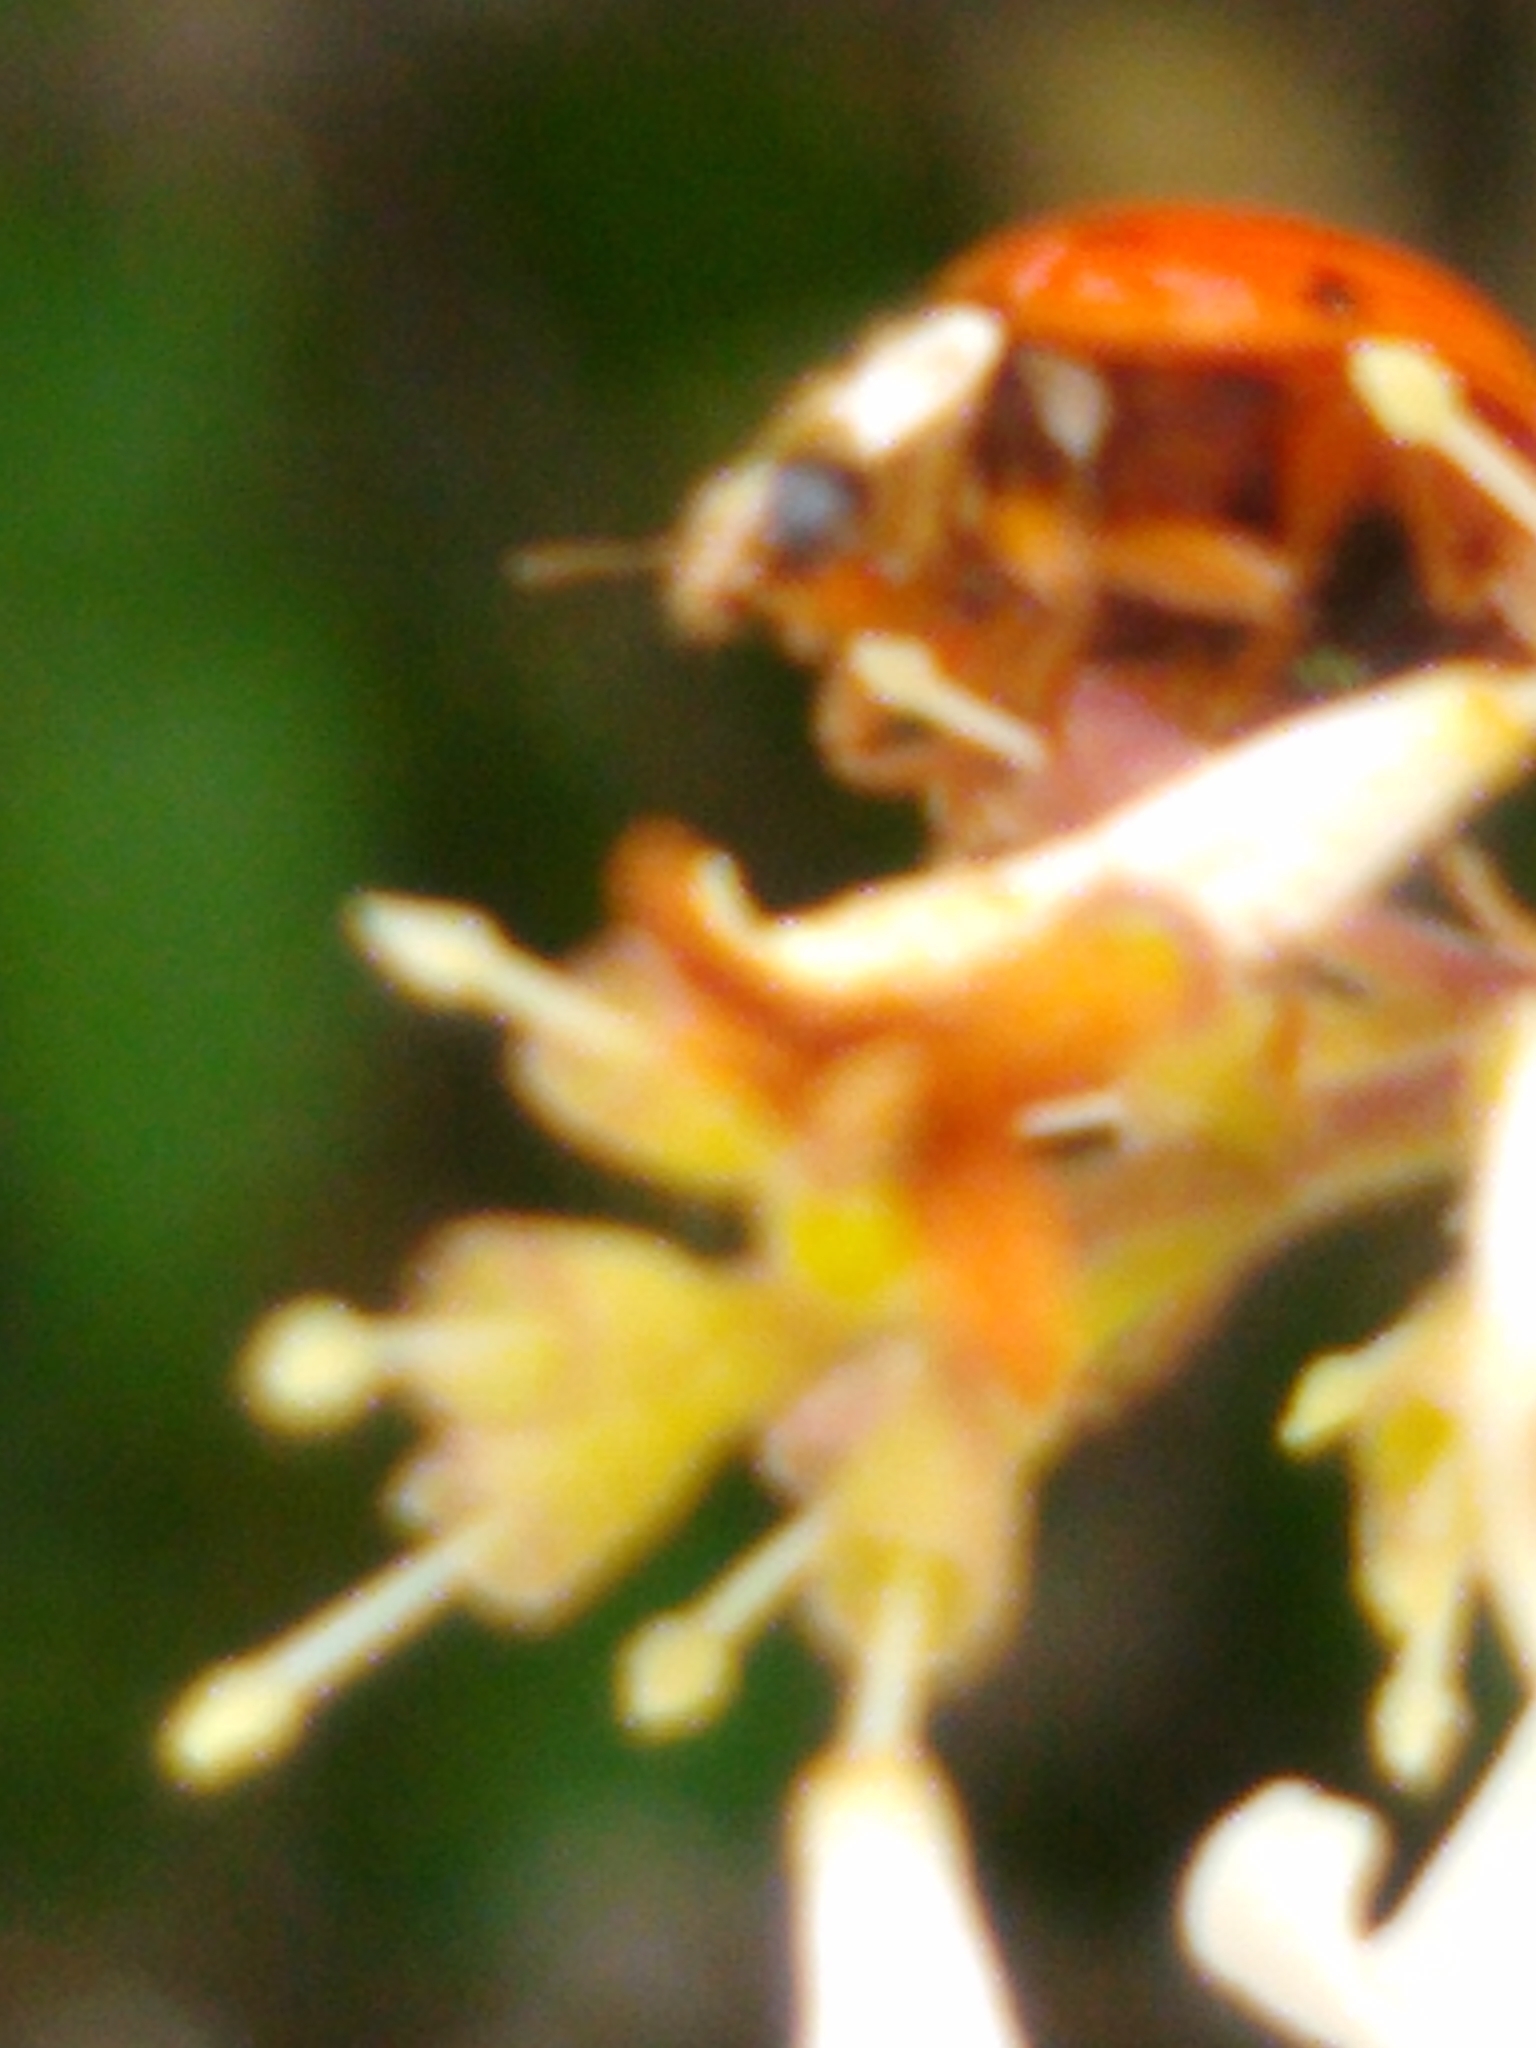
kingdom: Animalia
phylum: Arthropoda
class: Insecta
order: Coleoptera
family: Coccinellidae
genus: Harmonia
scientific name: Harmonia axyridis
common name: Harlequin ladybird
